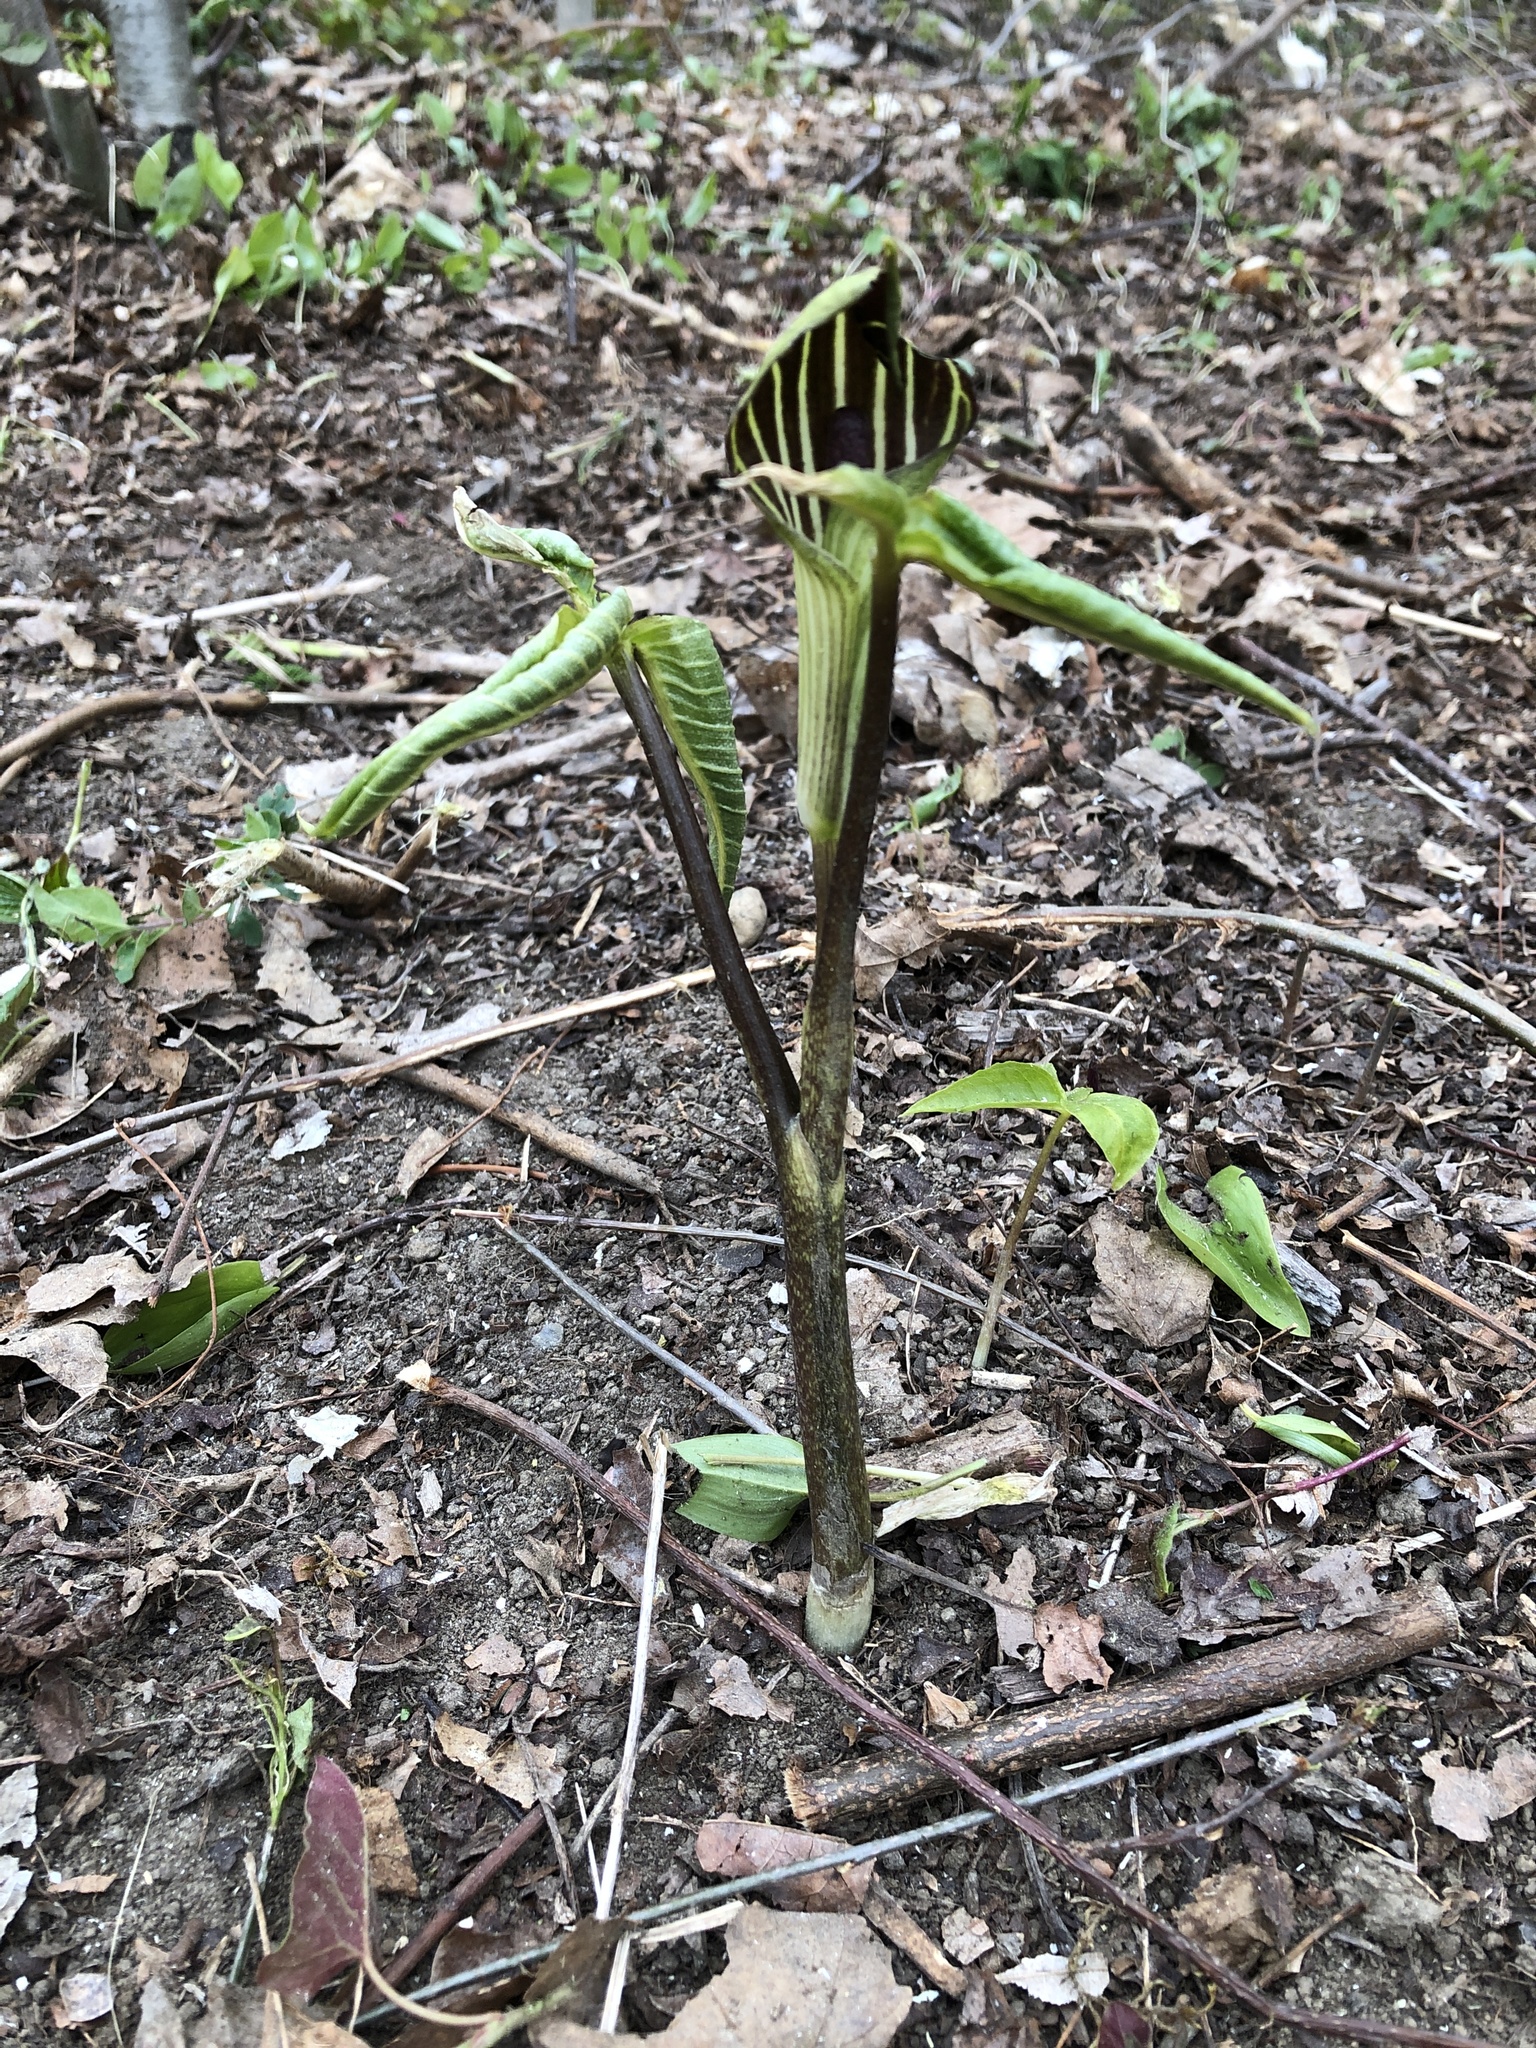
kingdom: Plantae
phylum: Tracheophyta
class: Liliopsida
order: Alismatales
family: Araceae
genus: Arisaema
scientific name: Arisaema triphyllum
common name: Jack-in-the-pulpit
